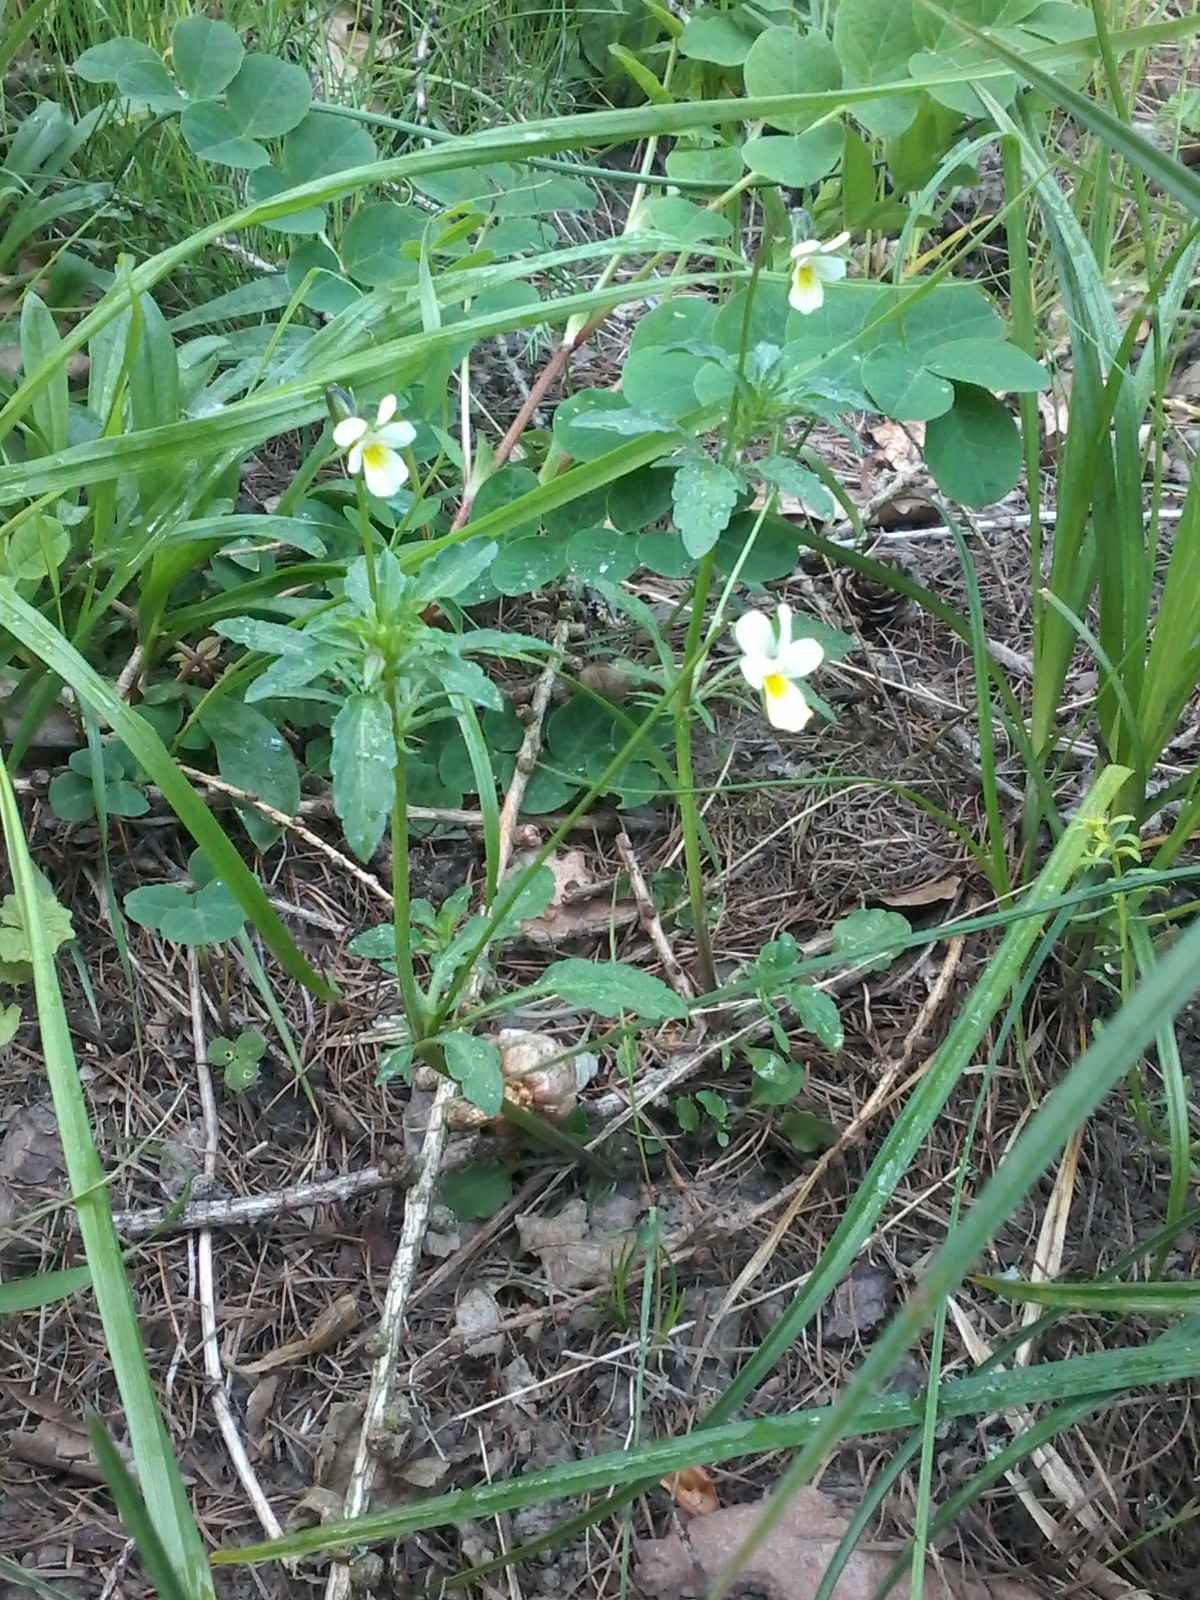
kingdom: Plantae
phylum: Tracheophyta
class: Magnoliopsida
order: Malpighiales
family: Violaceae
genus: Viola
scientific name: Viola arvensis
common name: Field pansy
